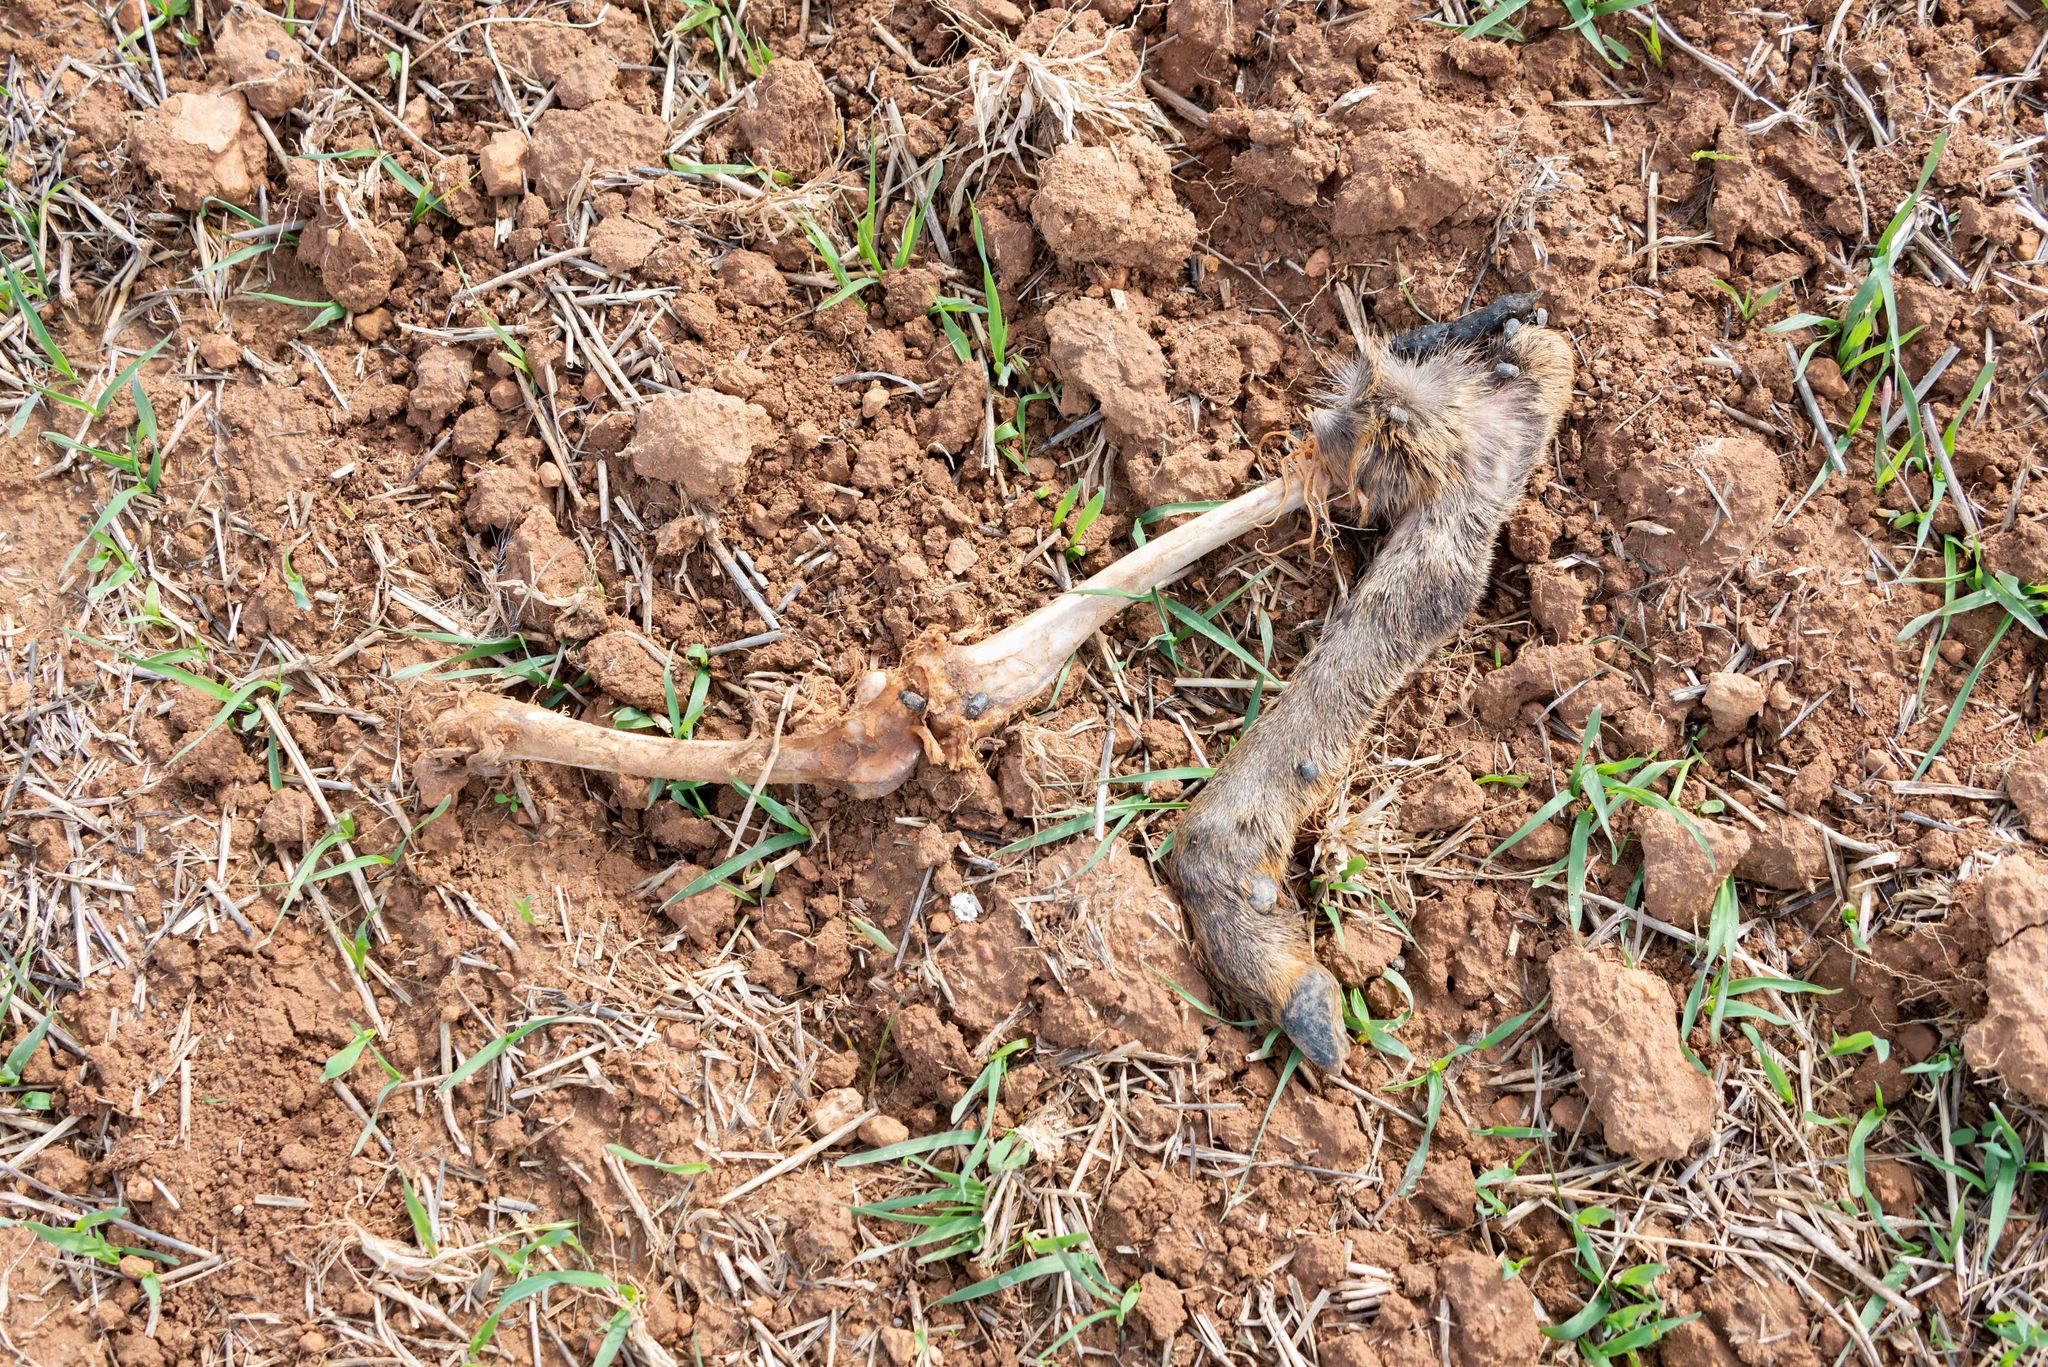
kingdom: Animalia
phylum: Chordata
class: Mammalia
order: Artiodactyla
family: Cervidae
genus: Capreolus
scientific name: Capreolus capreolus
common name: Western roe deer
